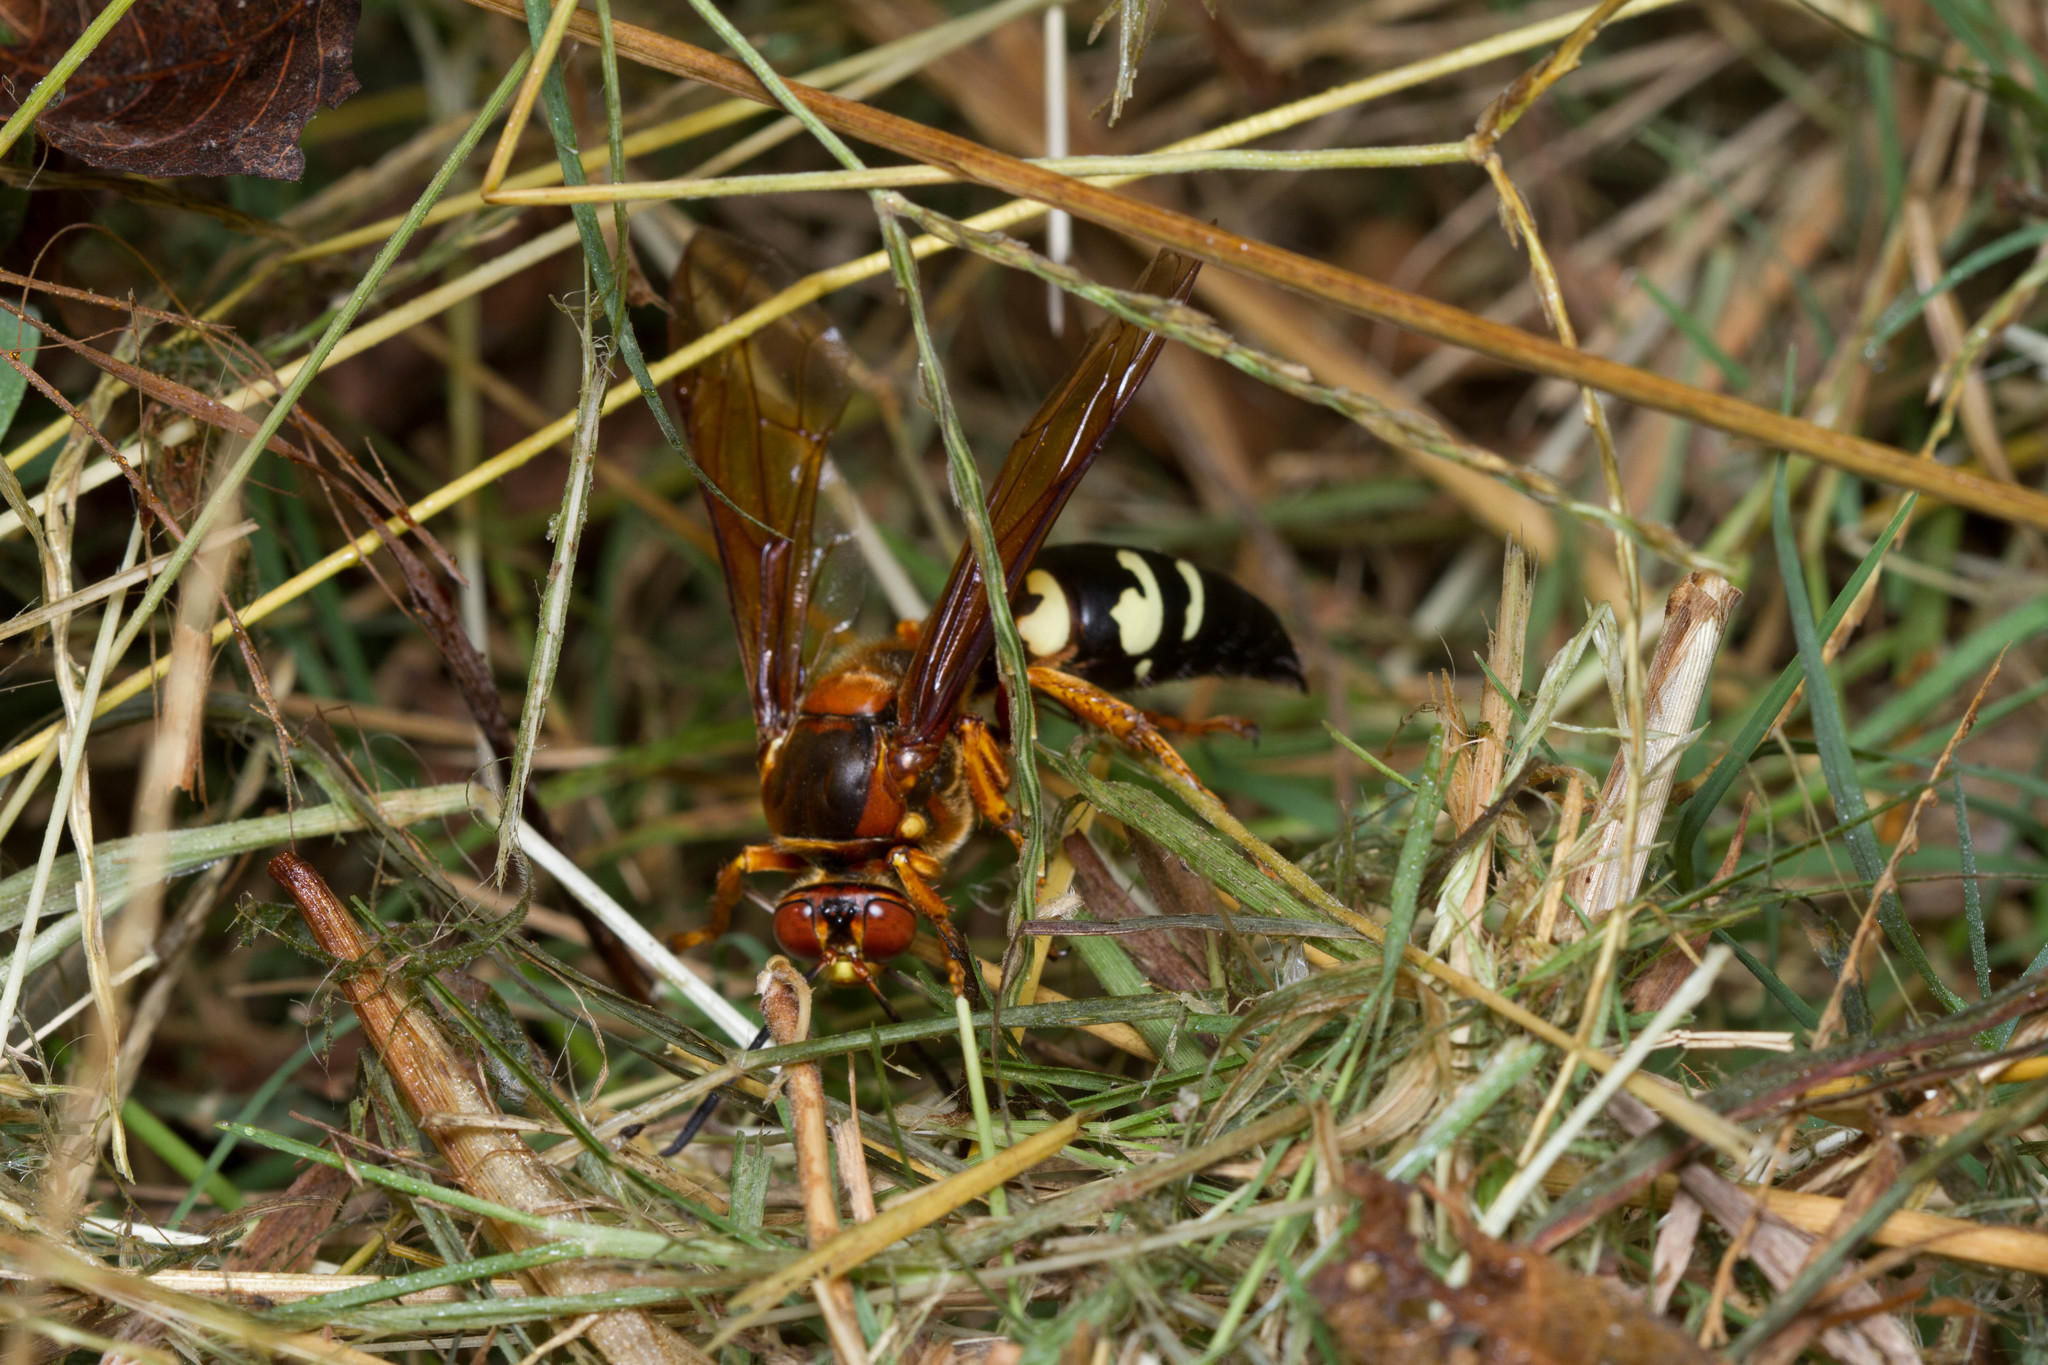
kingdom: Animalia
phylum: Arthropoda
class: Insecta
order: Hymenoptera
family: Crabronidae
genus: Sphecius
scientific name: Sphecius speciosus
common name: Cicada killer
